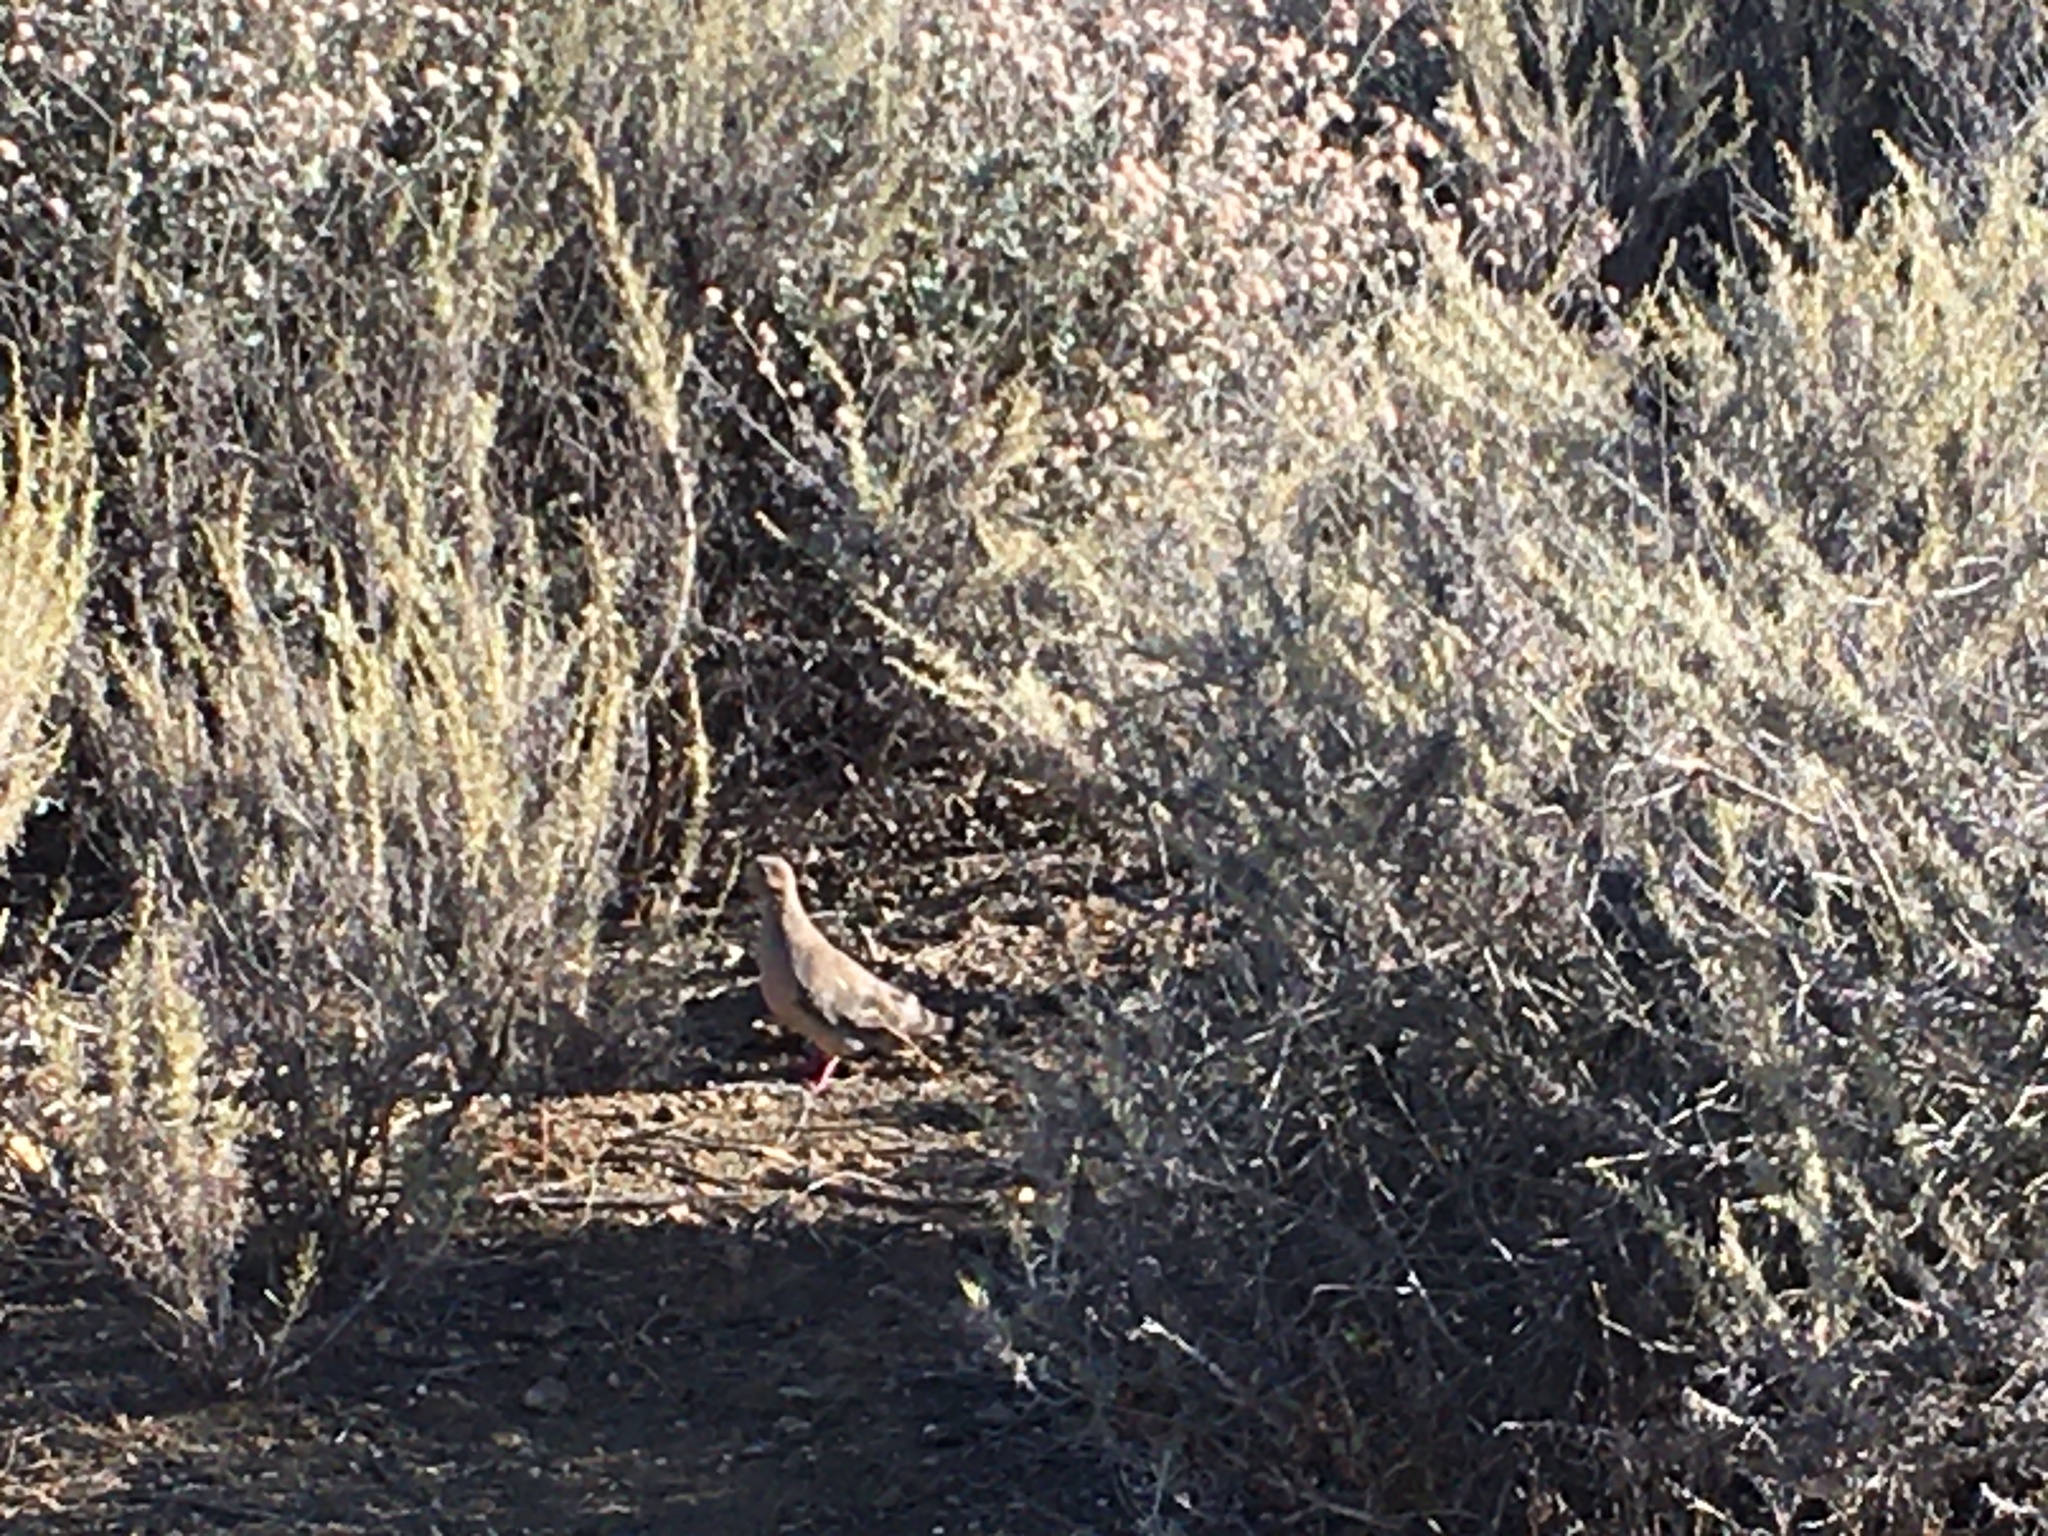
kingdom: Animalia
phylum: Chordata
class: Aves
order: Columbiformes
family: Columbidae
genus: Zenaida
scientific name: Zenaida macroura
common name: Mourning dove
